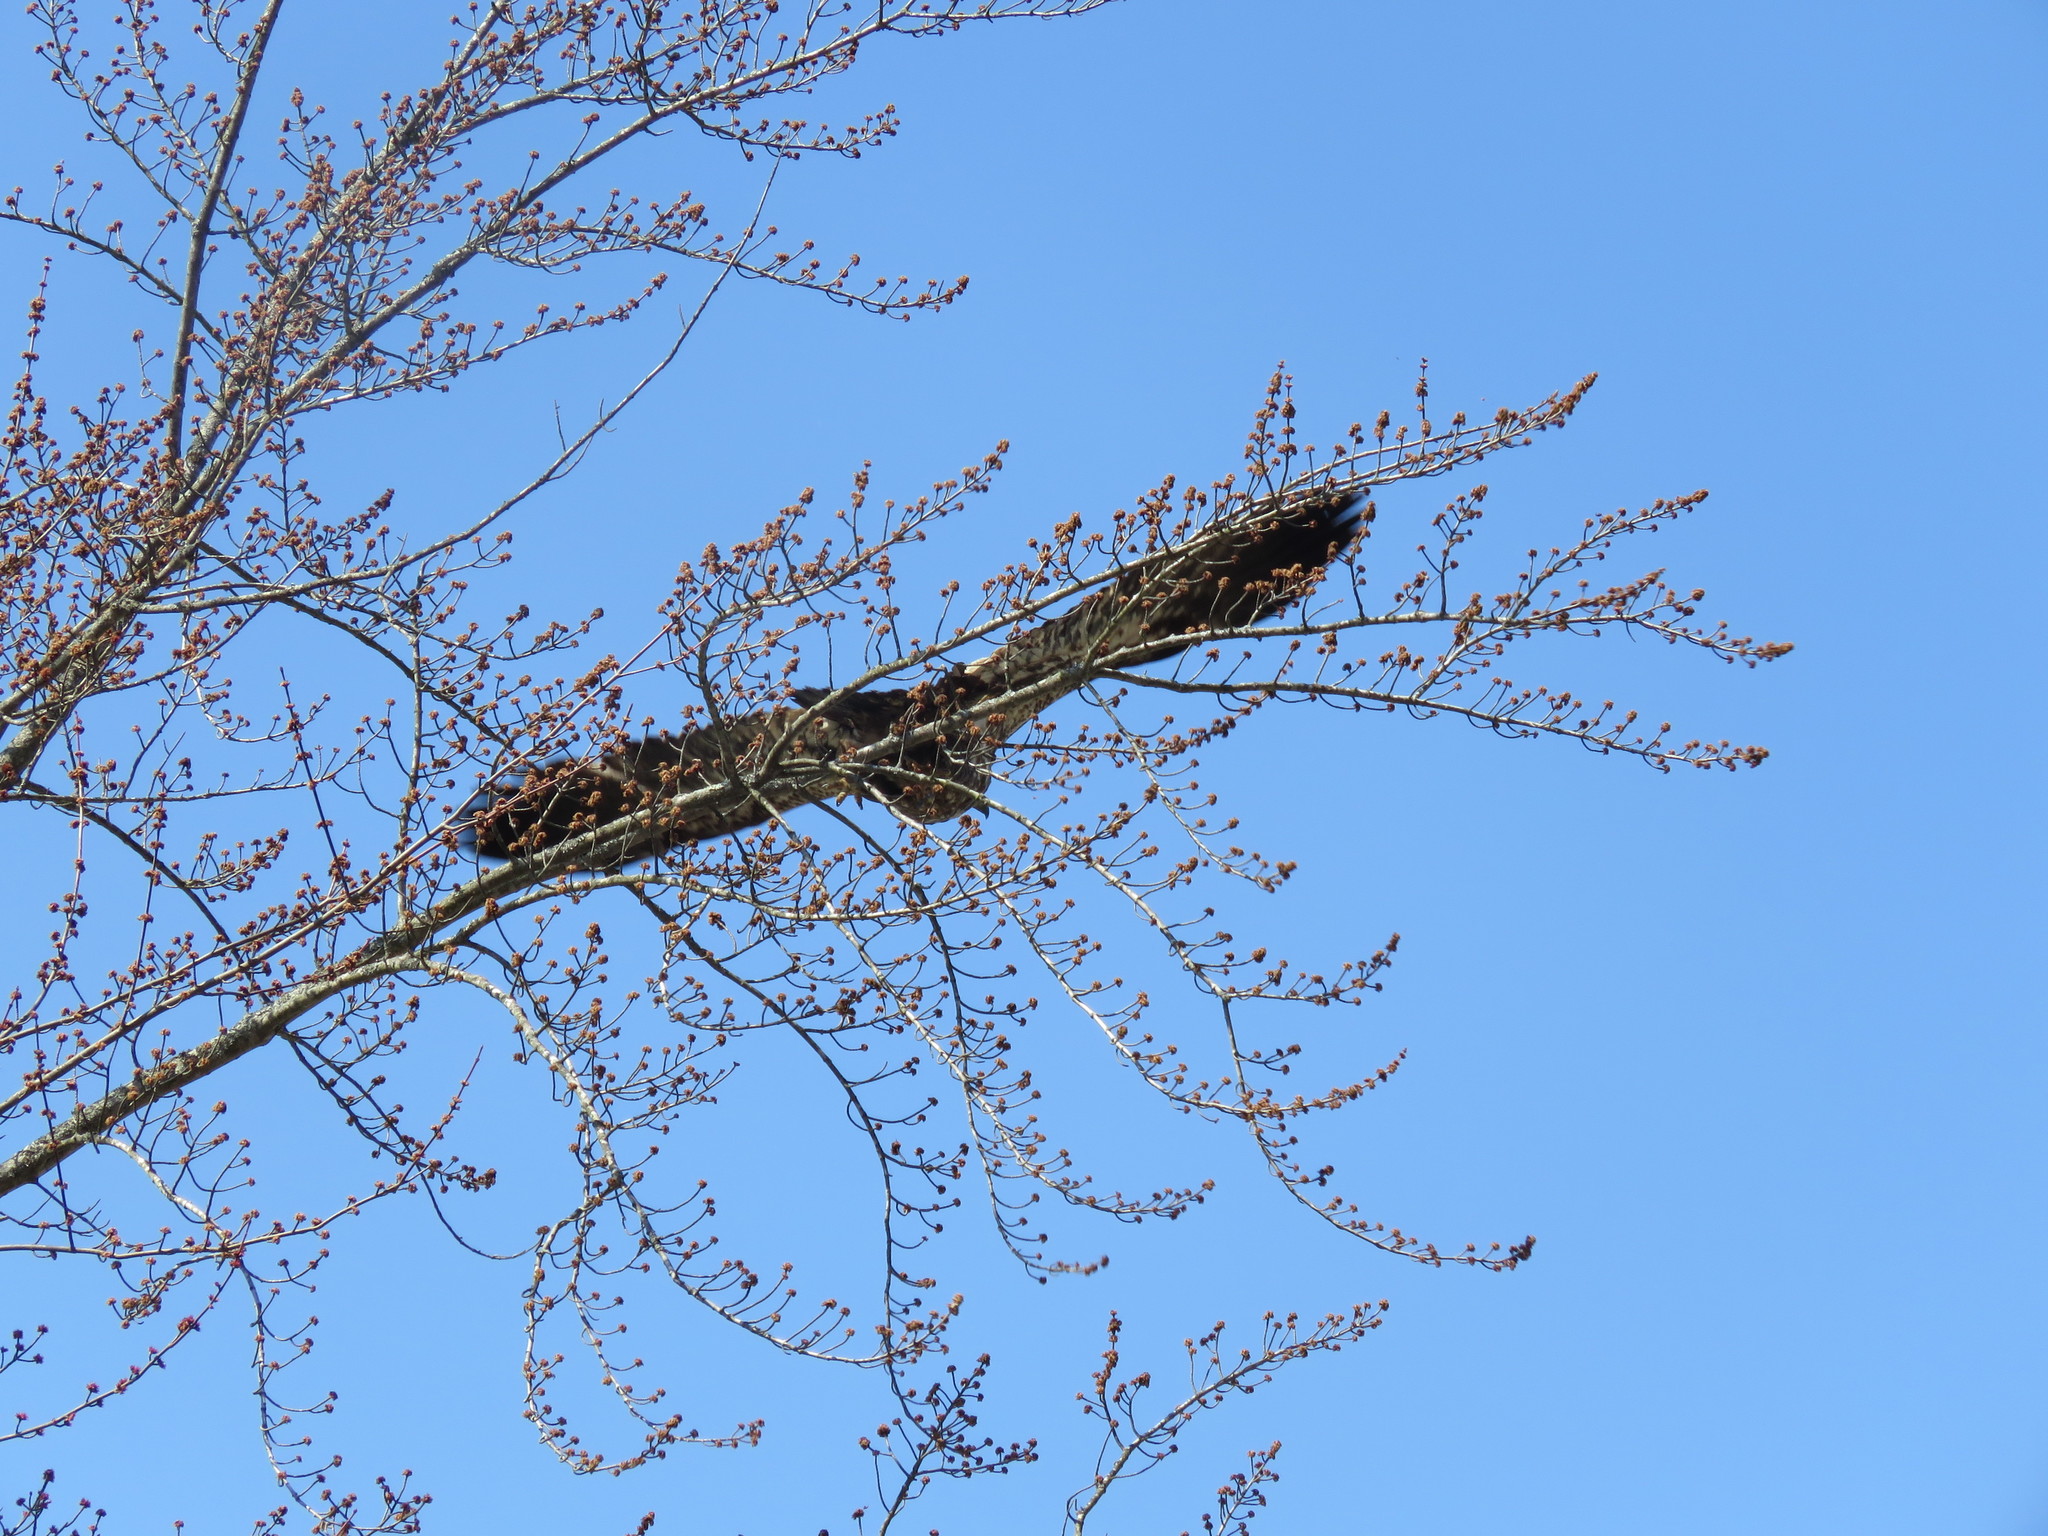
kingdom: Animalia
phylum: Chordata
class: Aves
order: Accipitriformes
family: Accipitridae
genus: Haliaeetus
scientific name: Haliaeetus leucocephalus
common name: Bald eagle
